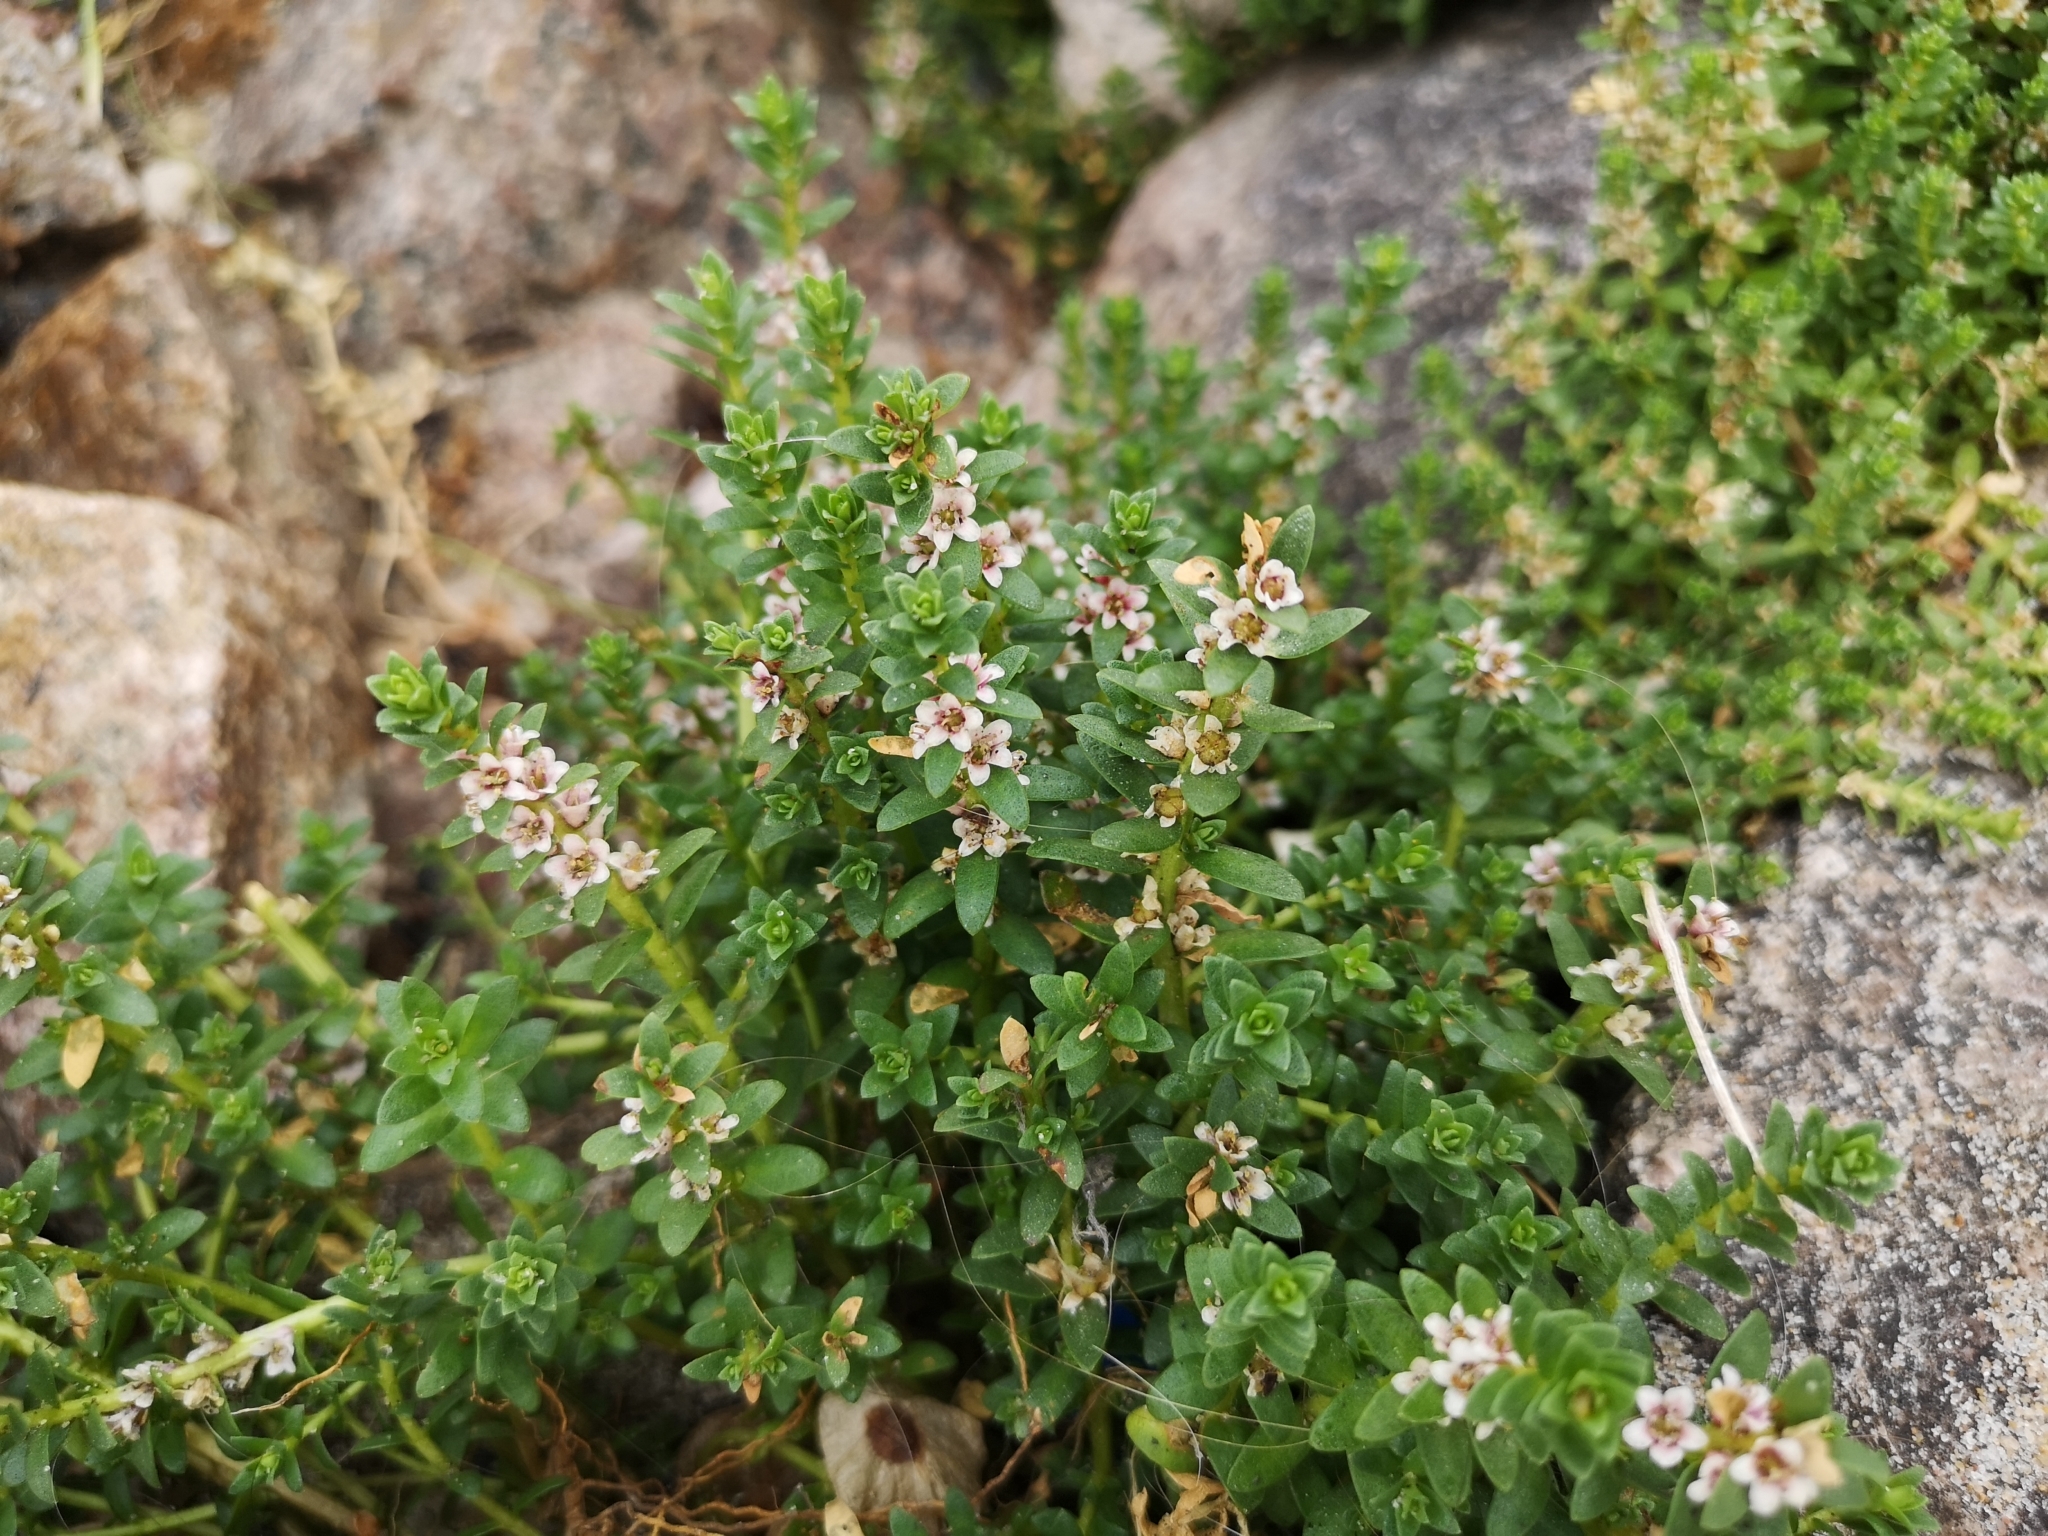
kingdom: Plantae
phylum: Tracheophyta
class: Magnoliopsida
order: Ericales
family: Primulaceae
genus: Lysimachia
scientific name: Lysimachia maritima
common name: Sea milkwort
